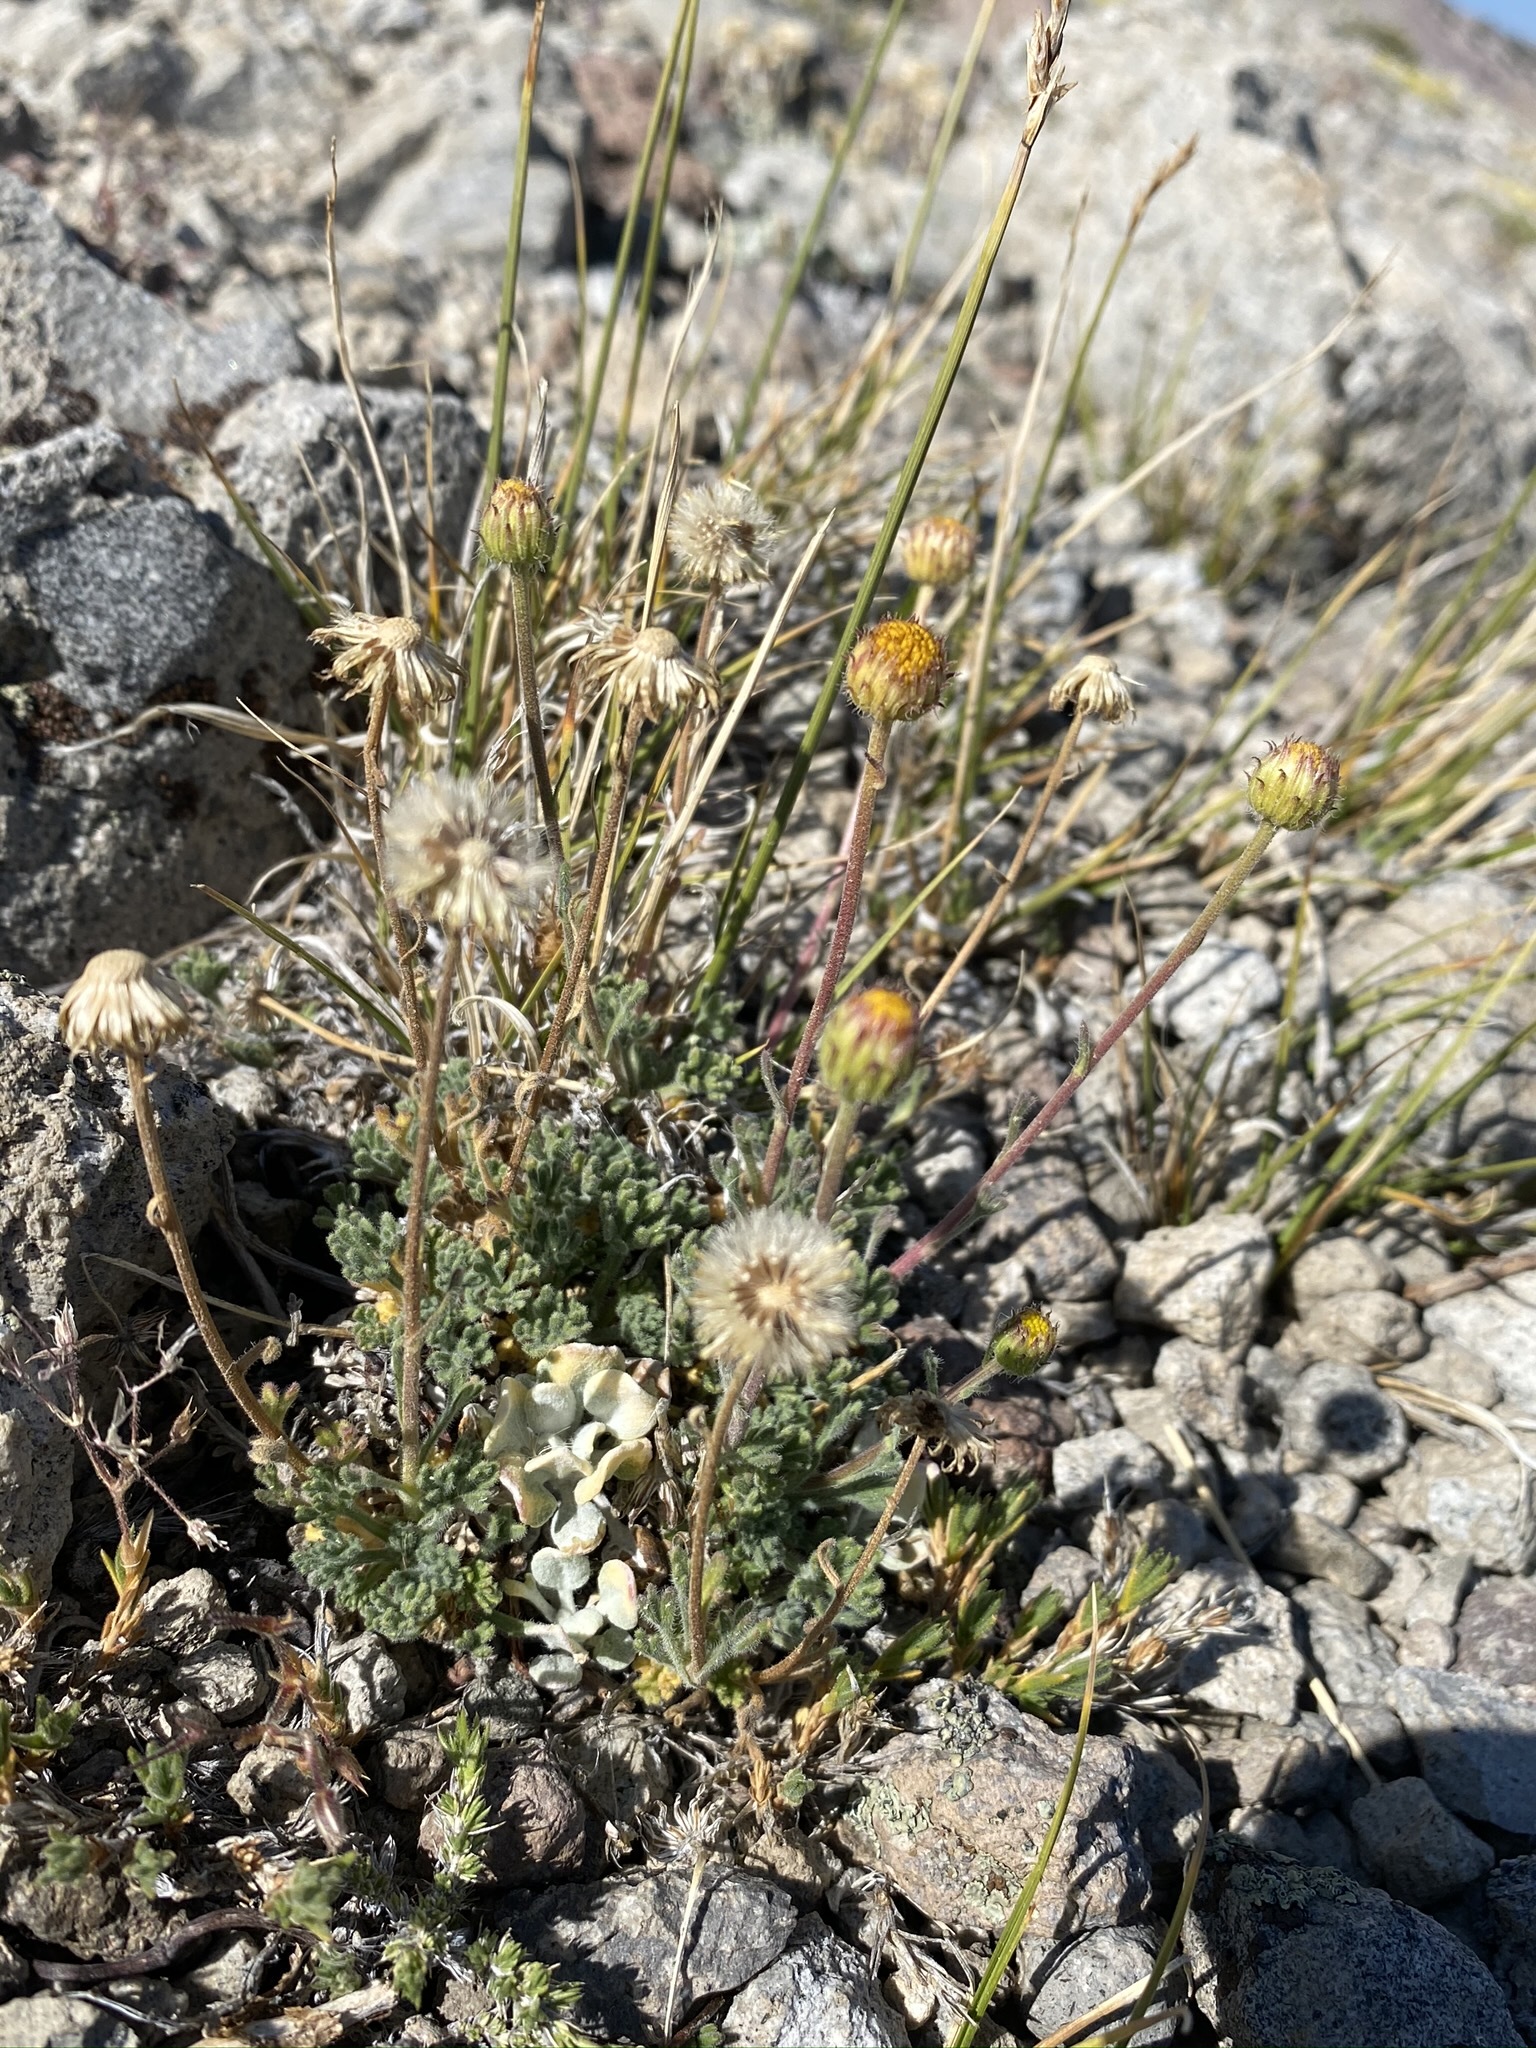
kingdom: Plantae
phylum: Tracheophyta
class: Magnoliopsida
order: Asterales
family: Asteraceae
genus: Erigeron
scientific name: Erigeron compositus
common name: Dwarf mountain fleabane
